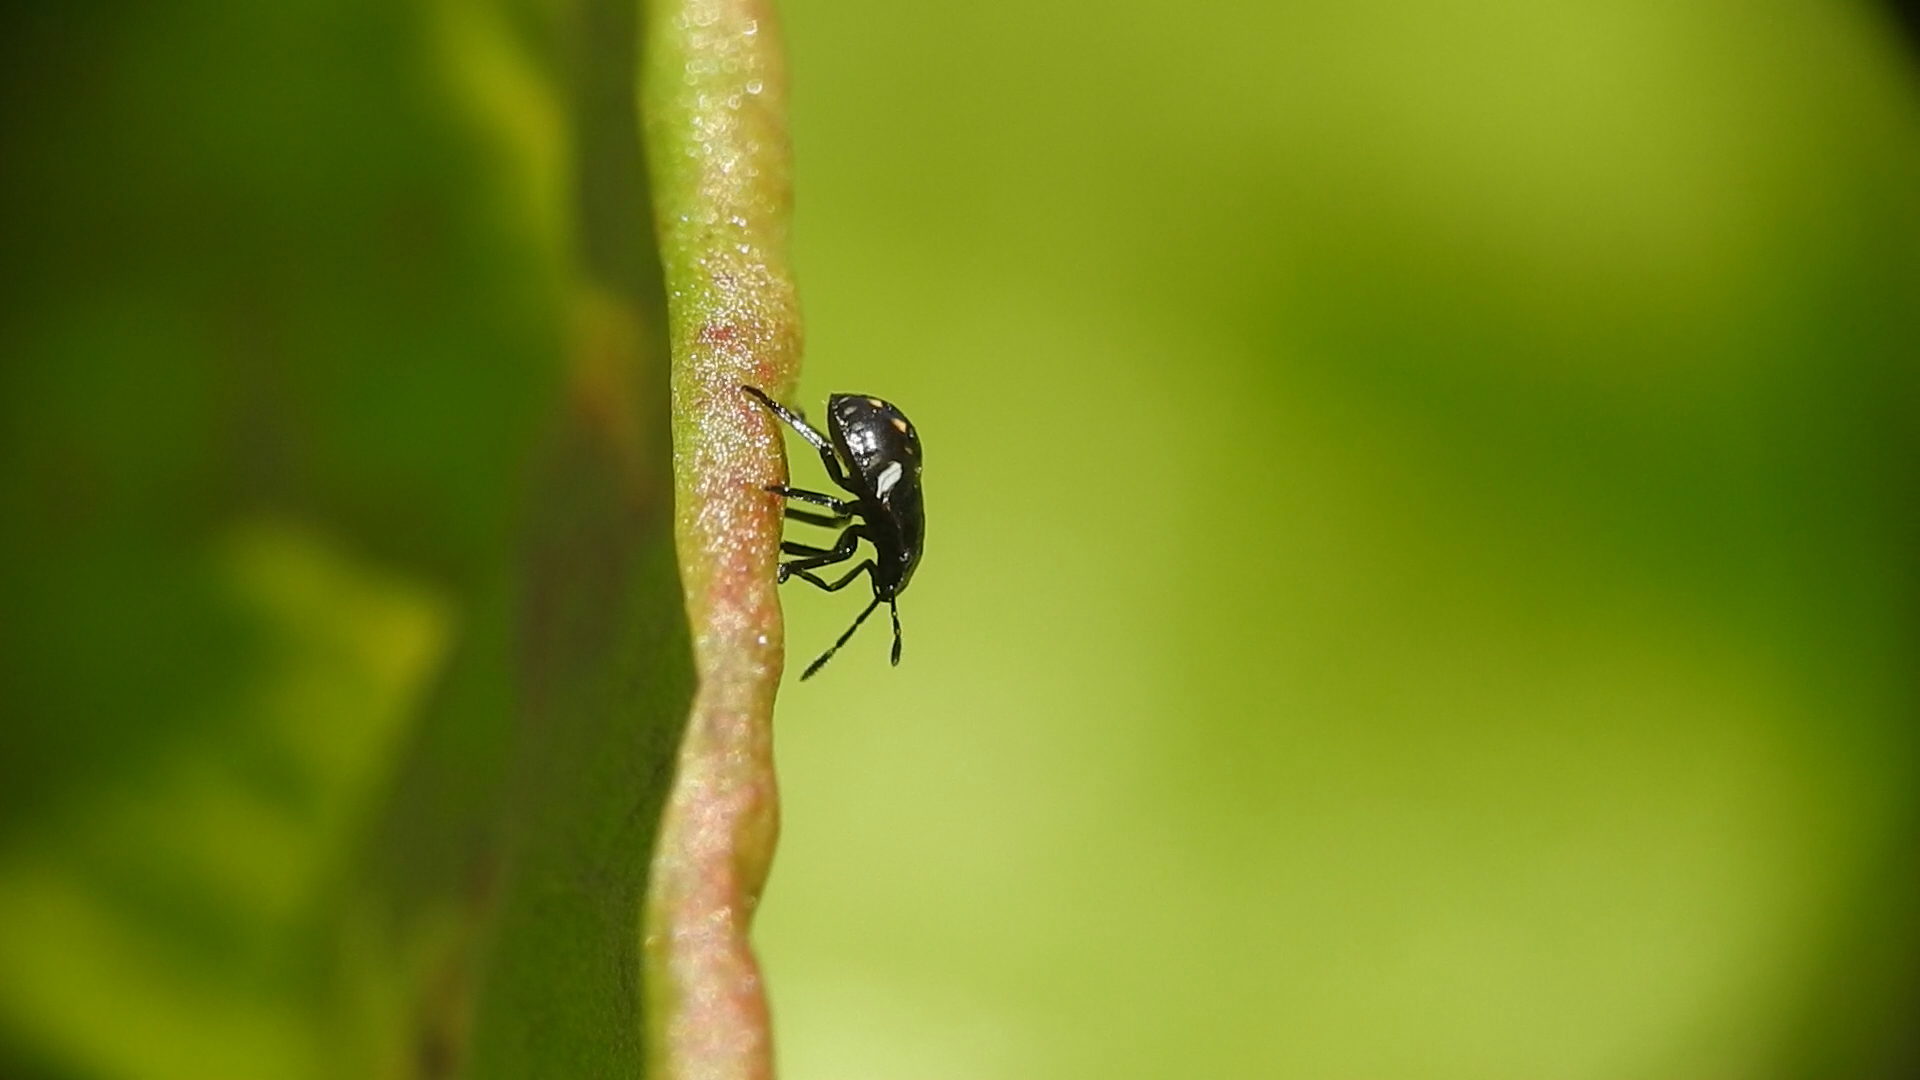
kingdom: Animalia
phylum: Arthropoda
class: Insecta
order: Hemiptera
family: Pentatomidae
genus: Nezara
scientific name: Nezara viridula
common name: Southern green stink bug
